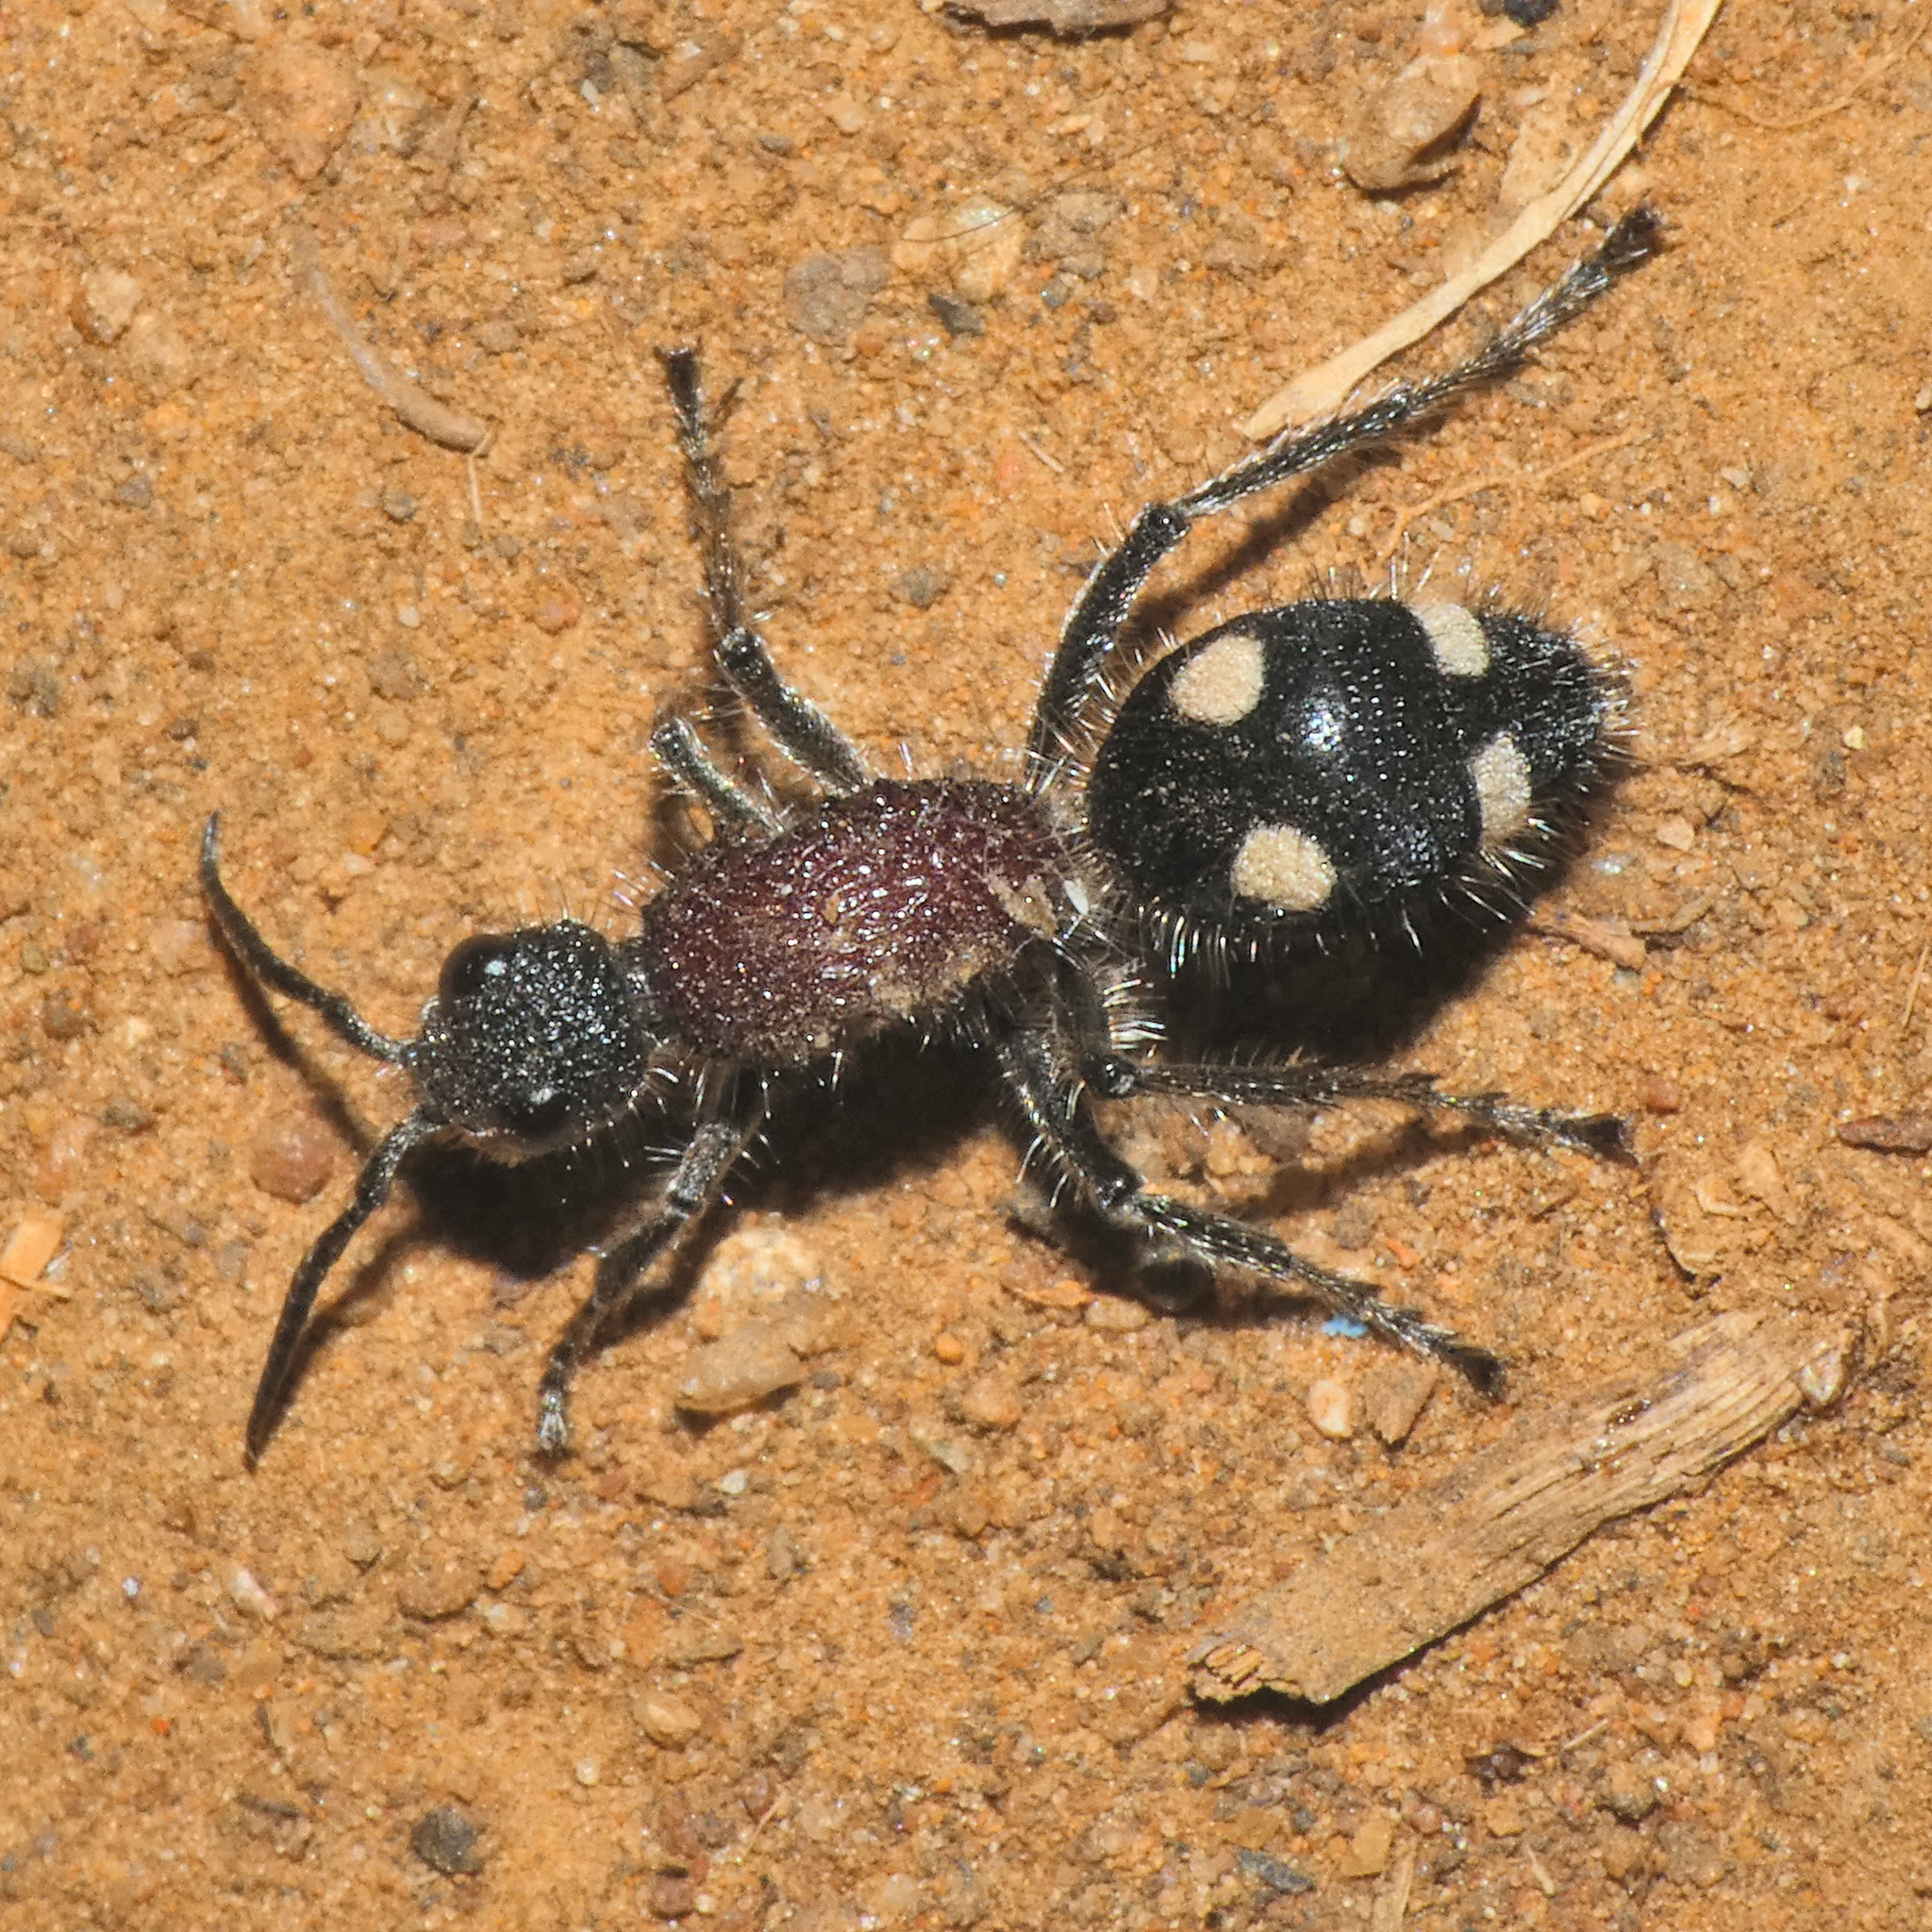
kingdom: Animalia
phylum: Arthropoda
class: Insecta
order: Hymenoptera
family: Mutillidae
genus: Dolichomutilla
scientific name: Dolichomutilla
